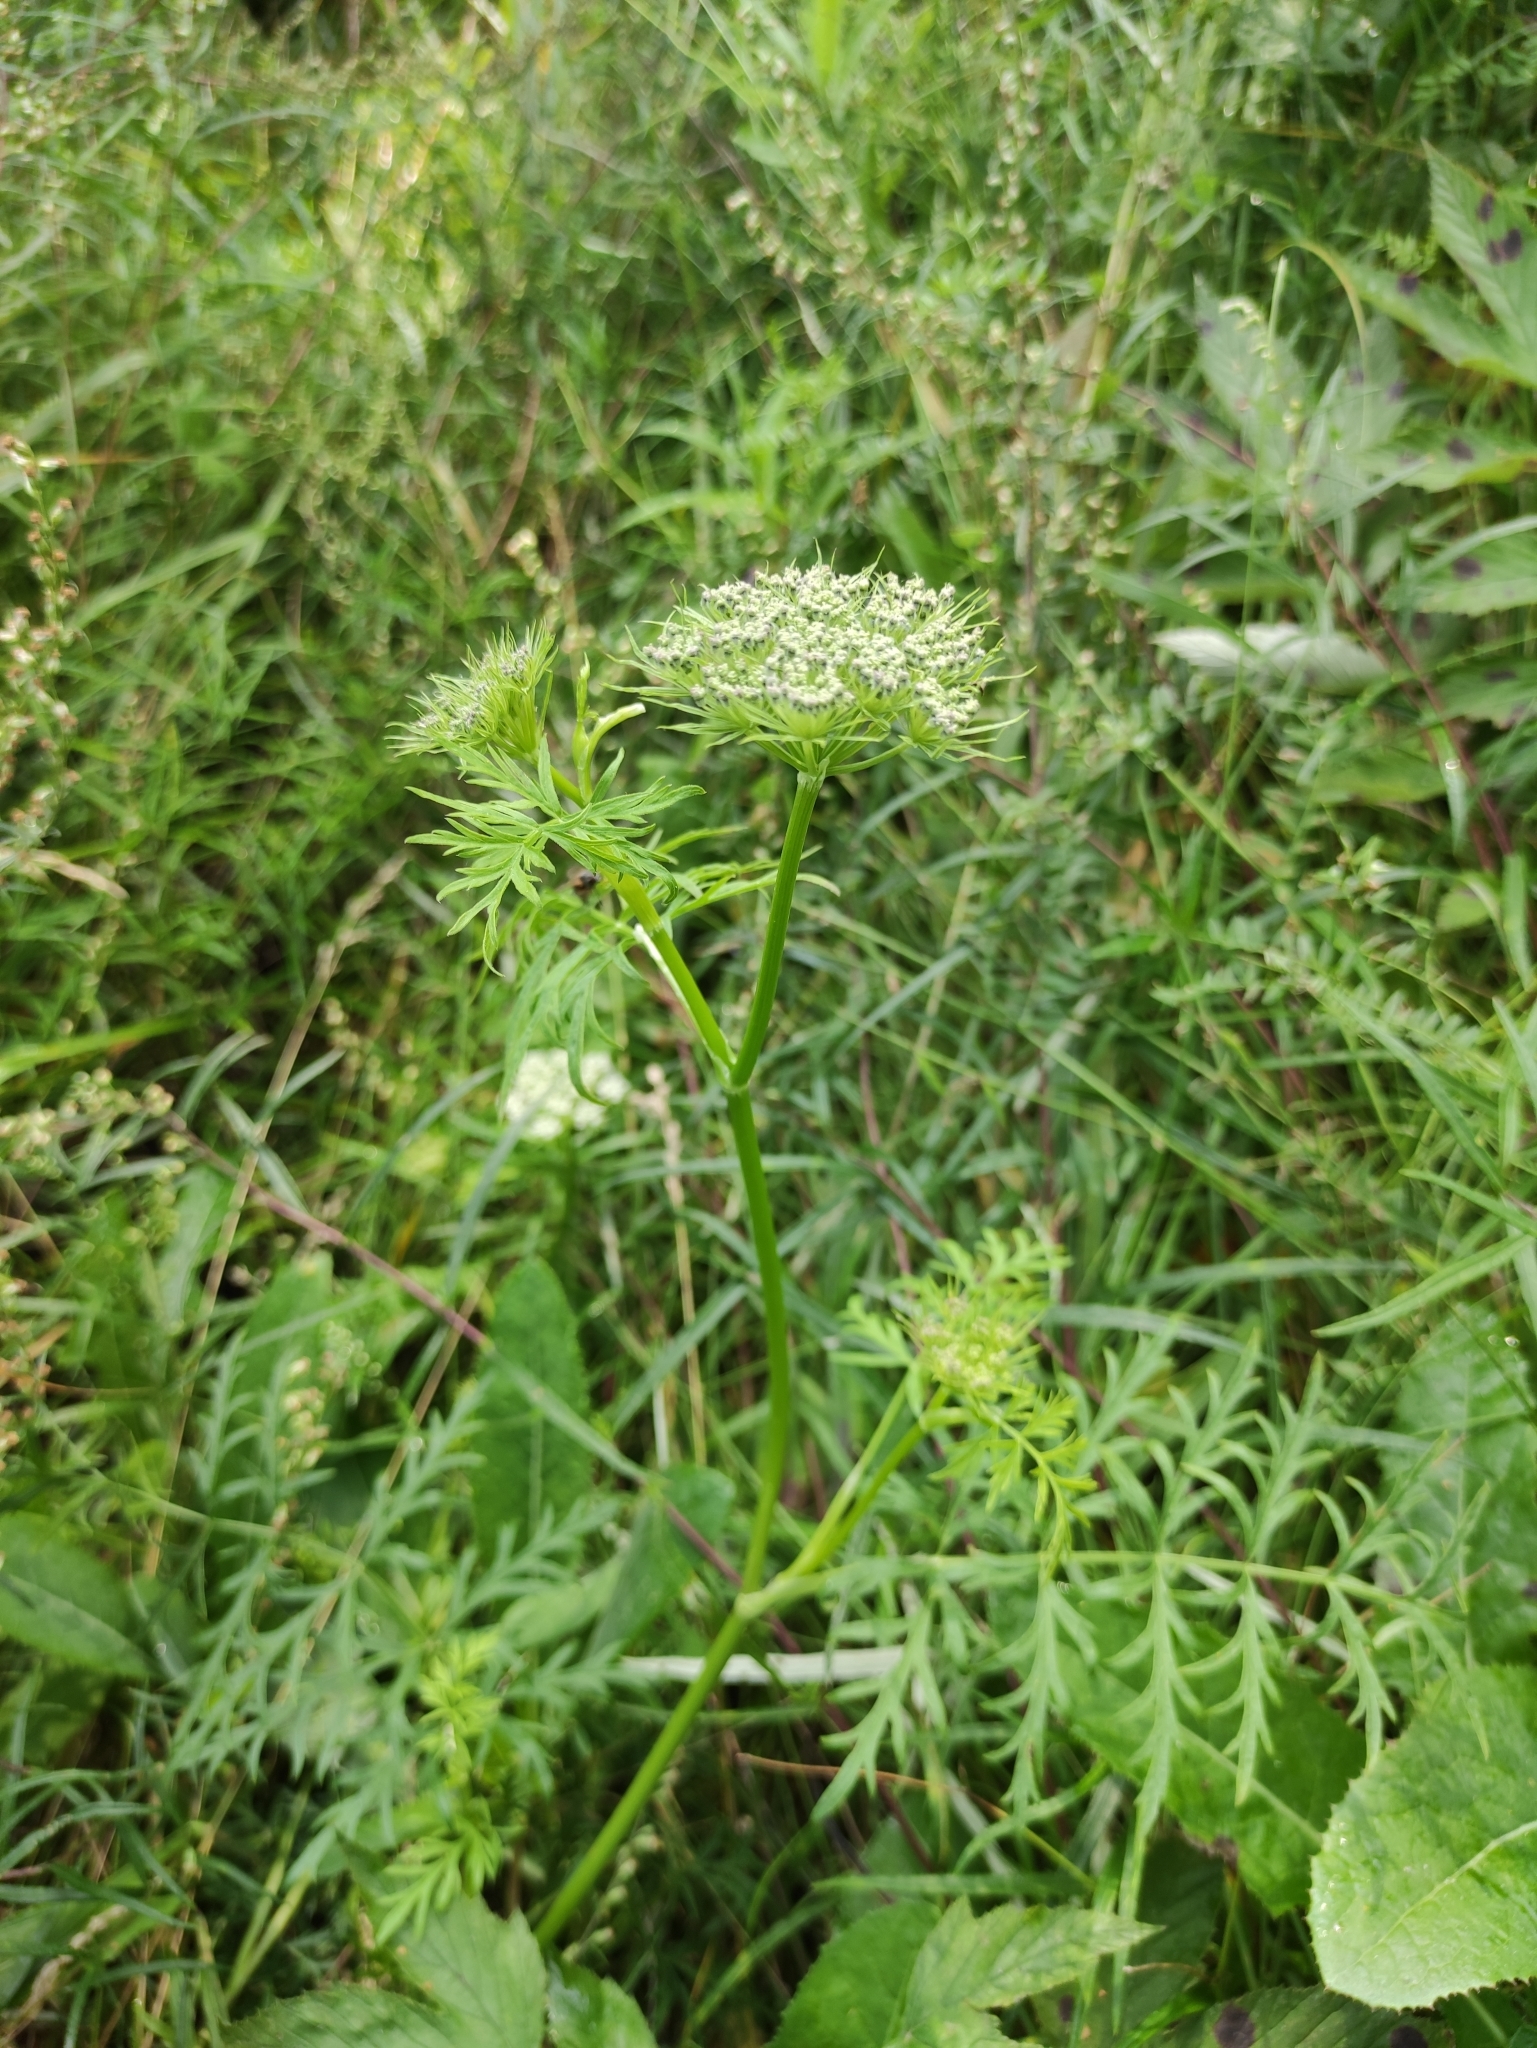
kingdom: Plantae
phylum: Tracheophyta
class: Magnoliopsida
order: Apiales
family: Apiaceae
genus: Seseli
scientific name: Seseli condensatum
